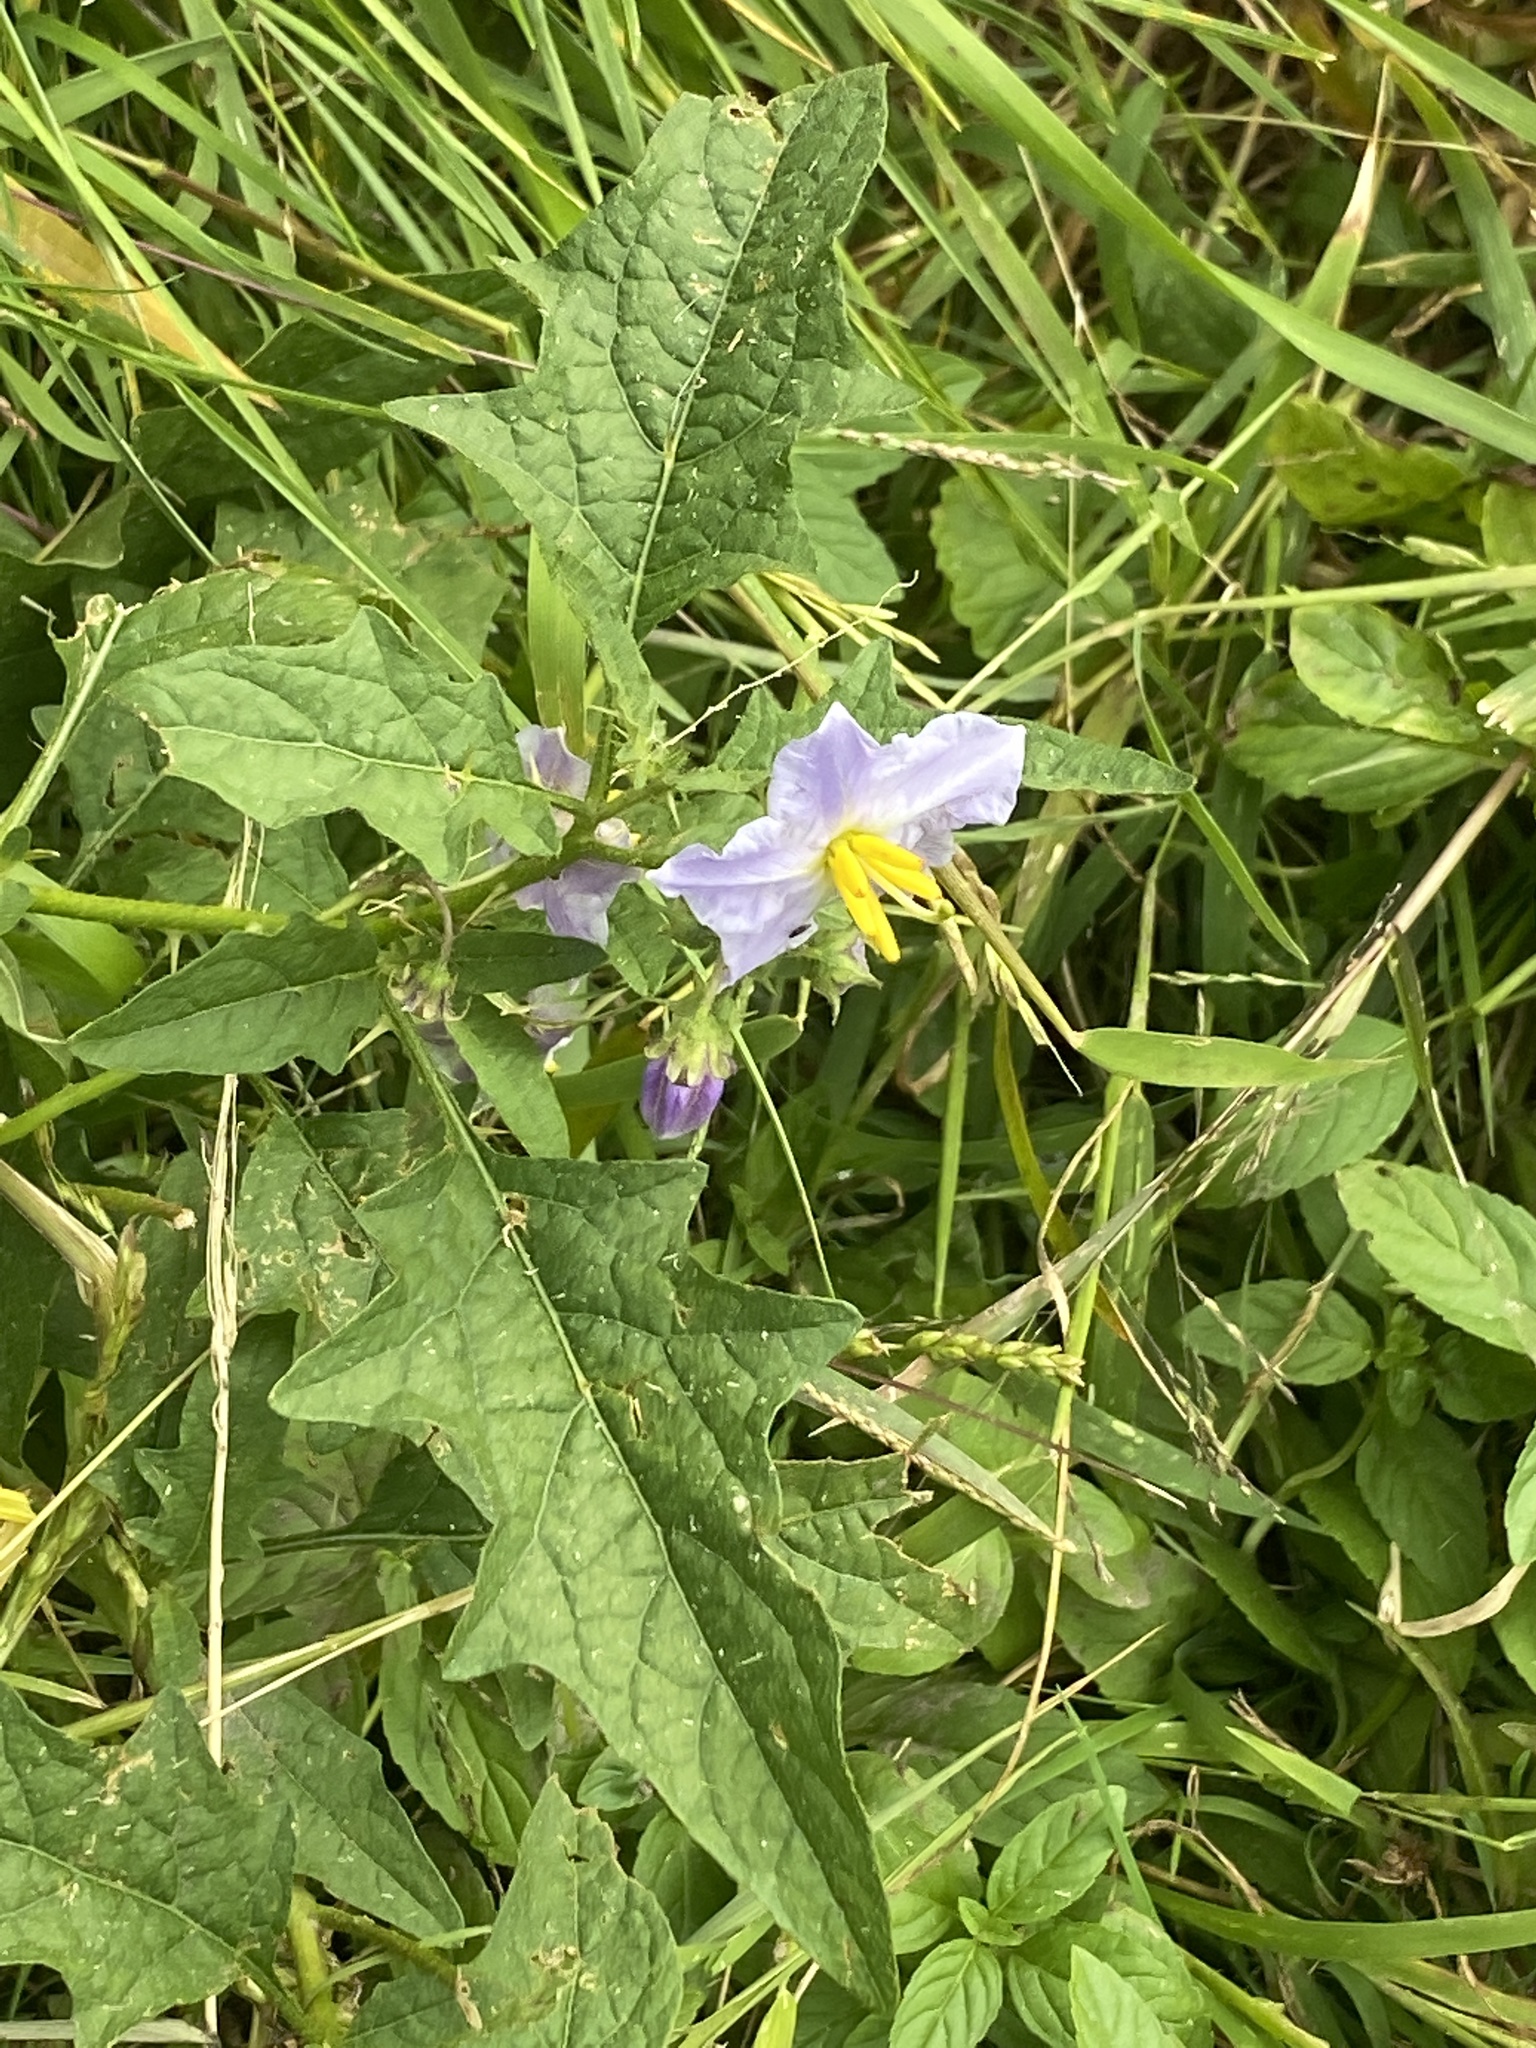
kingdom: Plantae
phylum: Tracheophyta
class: Magnoliopsida
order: Solanales
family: Solanaceae
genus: Solanum
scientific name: Solanum carolinense
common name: Horse-nettle
